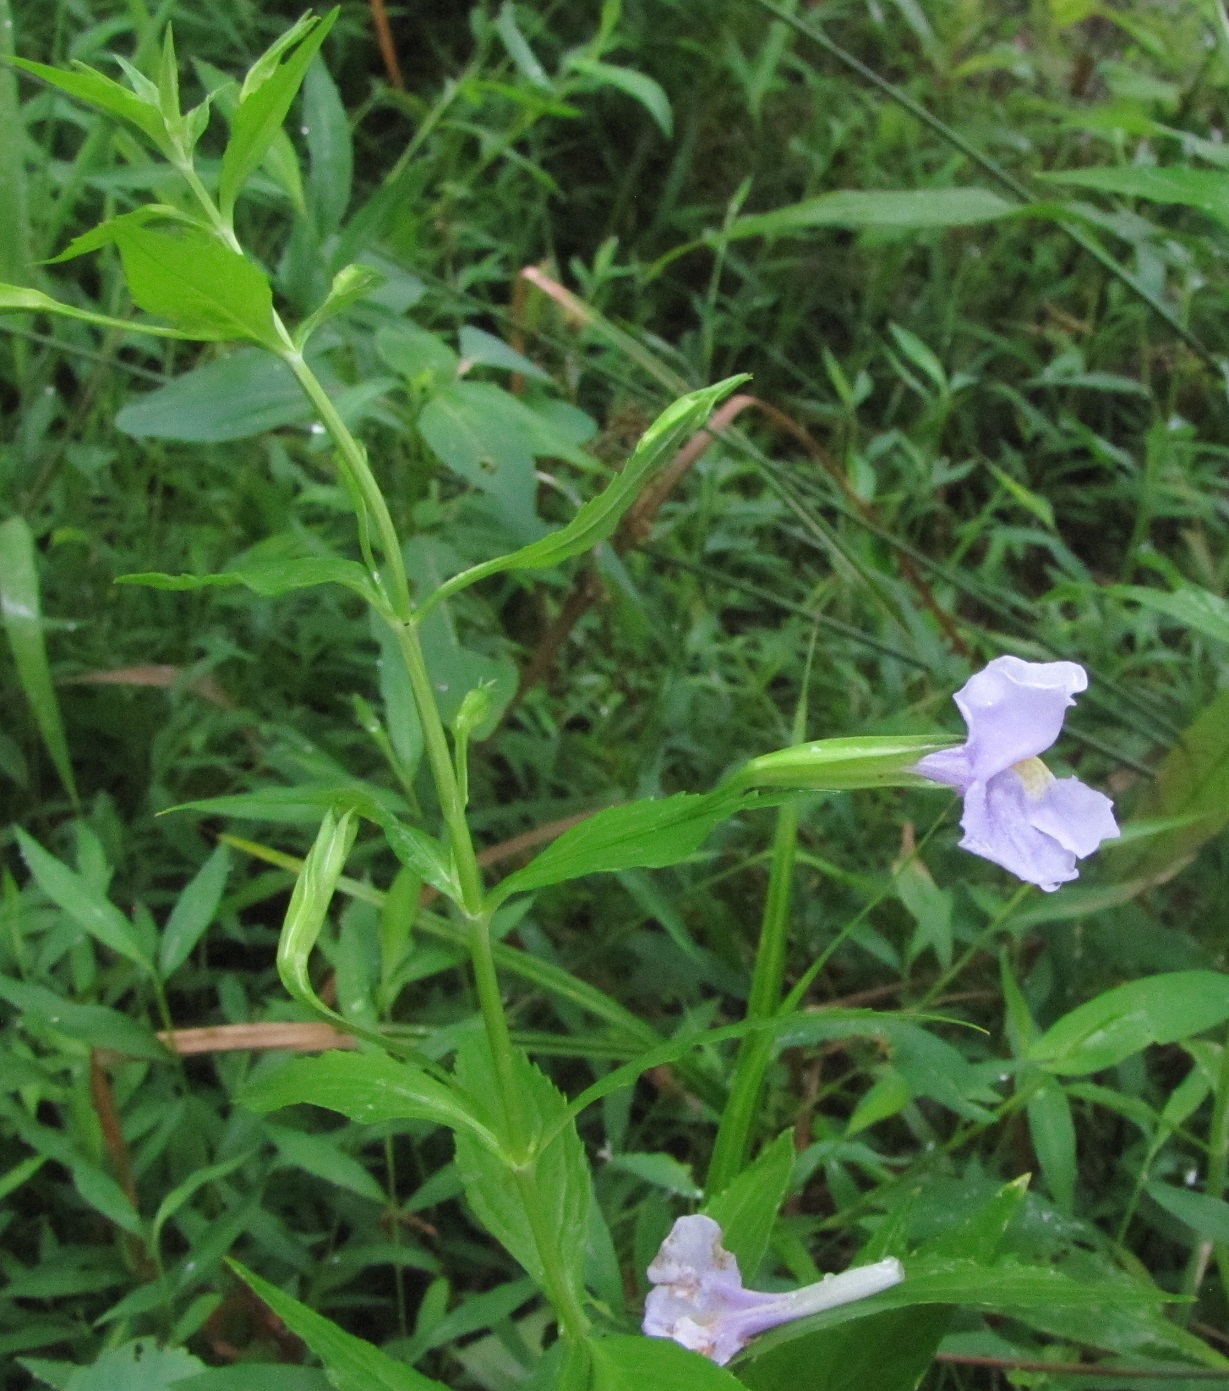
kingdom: Plantae
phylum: Tracheophyta
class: Magnoliopsida
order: Lamiales
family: Phrymaceae
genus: Mimulus
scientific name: Mimulus ringens
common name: Allegheny monkeyflower
